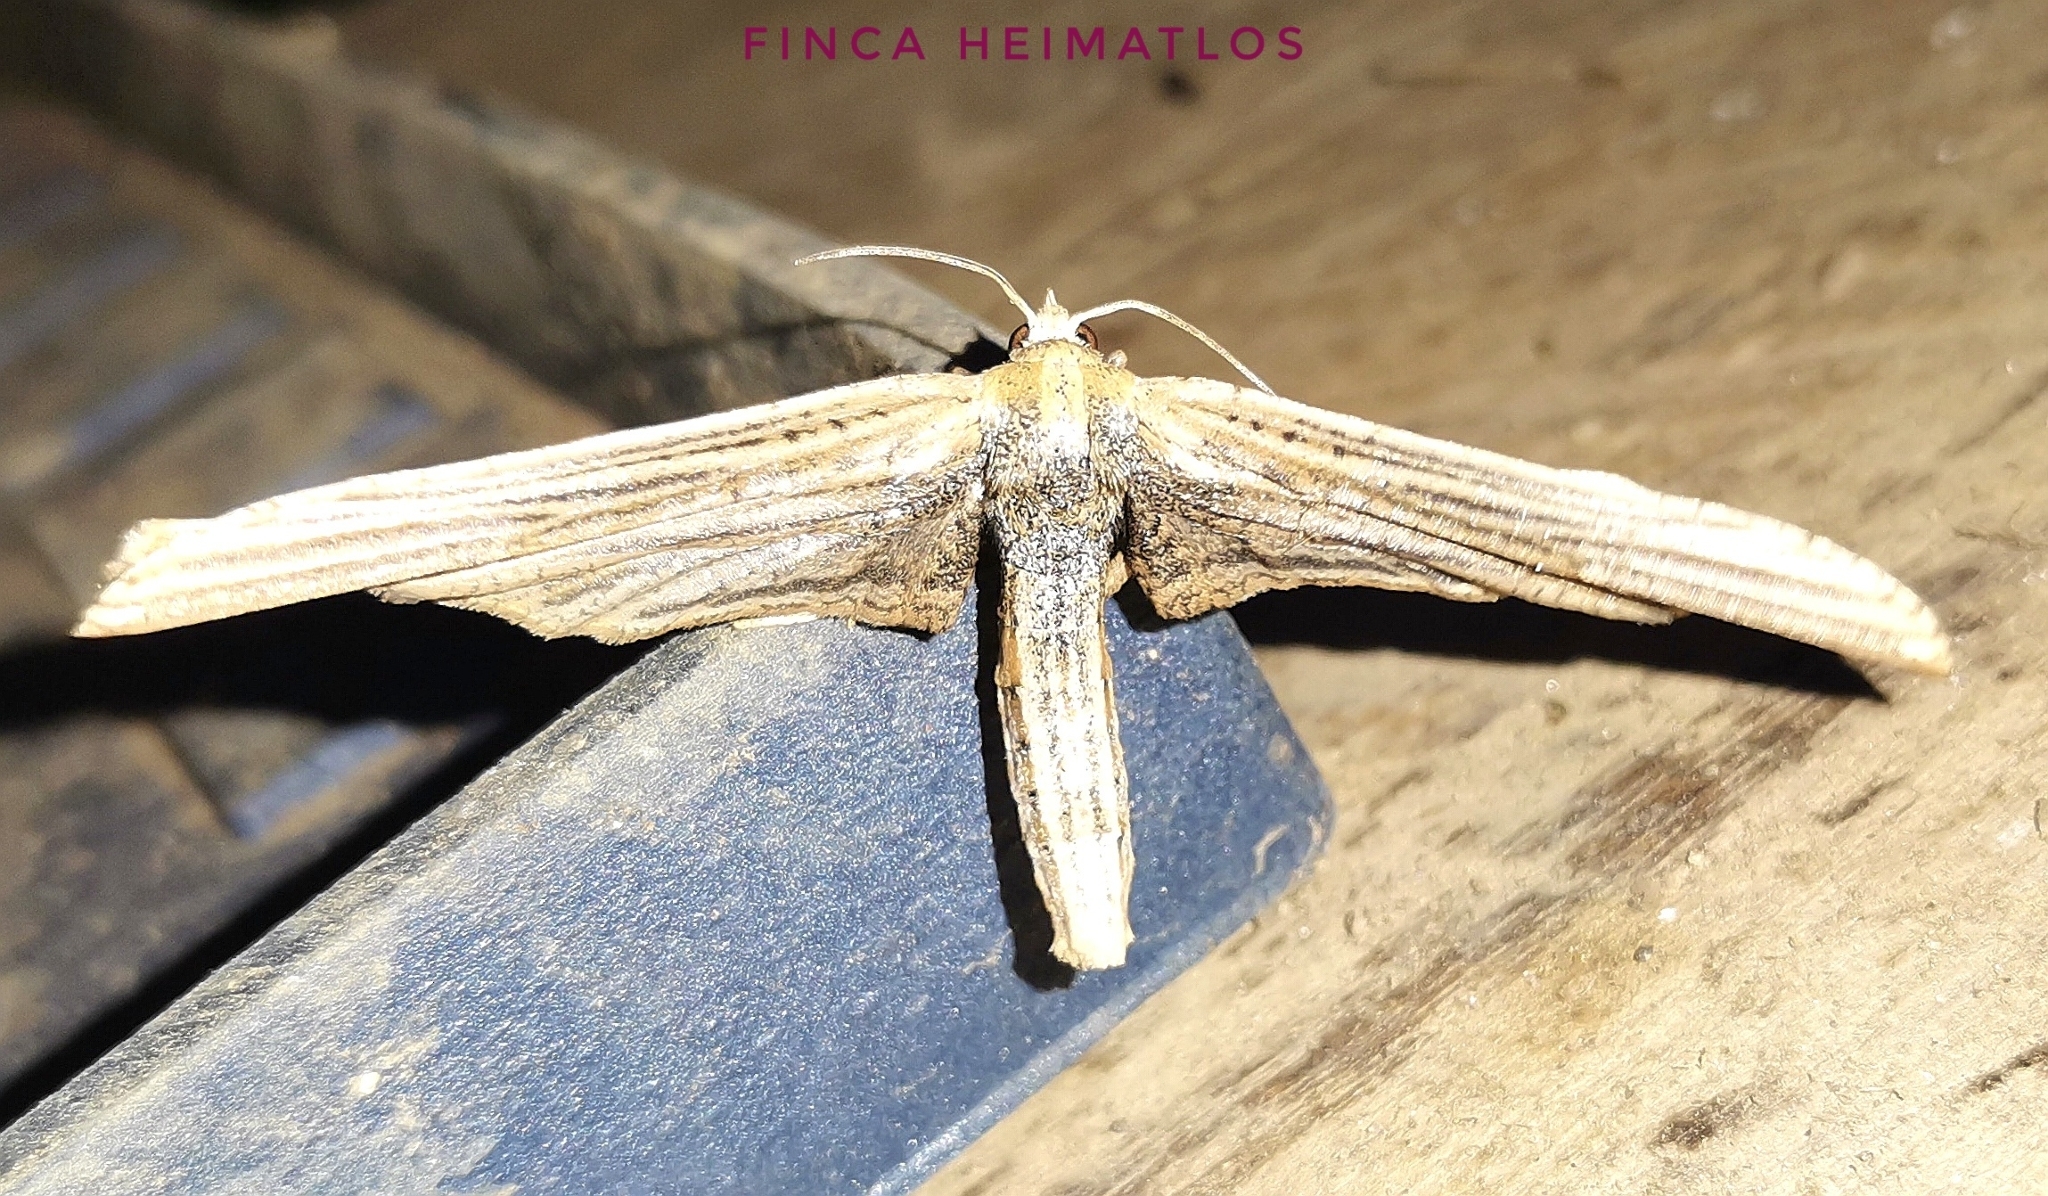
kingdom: Animalia
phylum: Arthropoda
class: Insecta
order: Lepidoptera
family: Thyrididae
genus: Forbesopsis
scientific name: Forbesopsis sphingipennis
